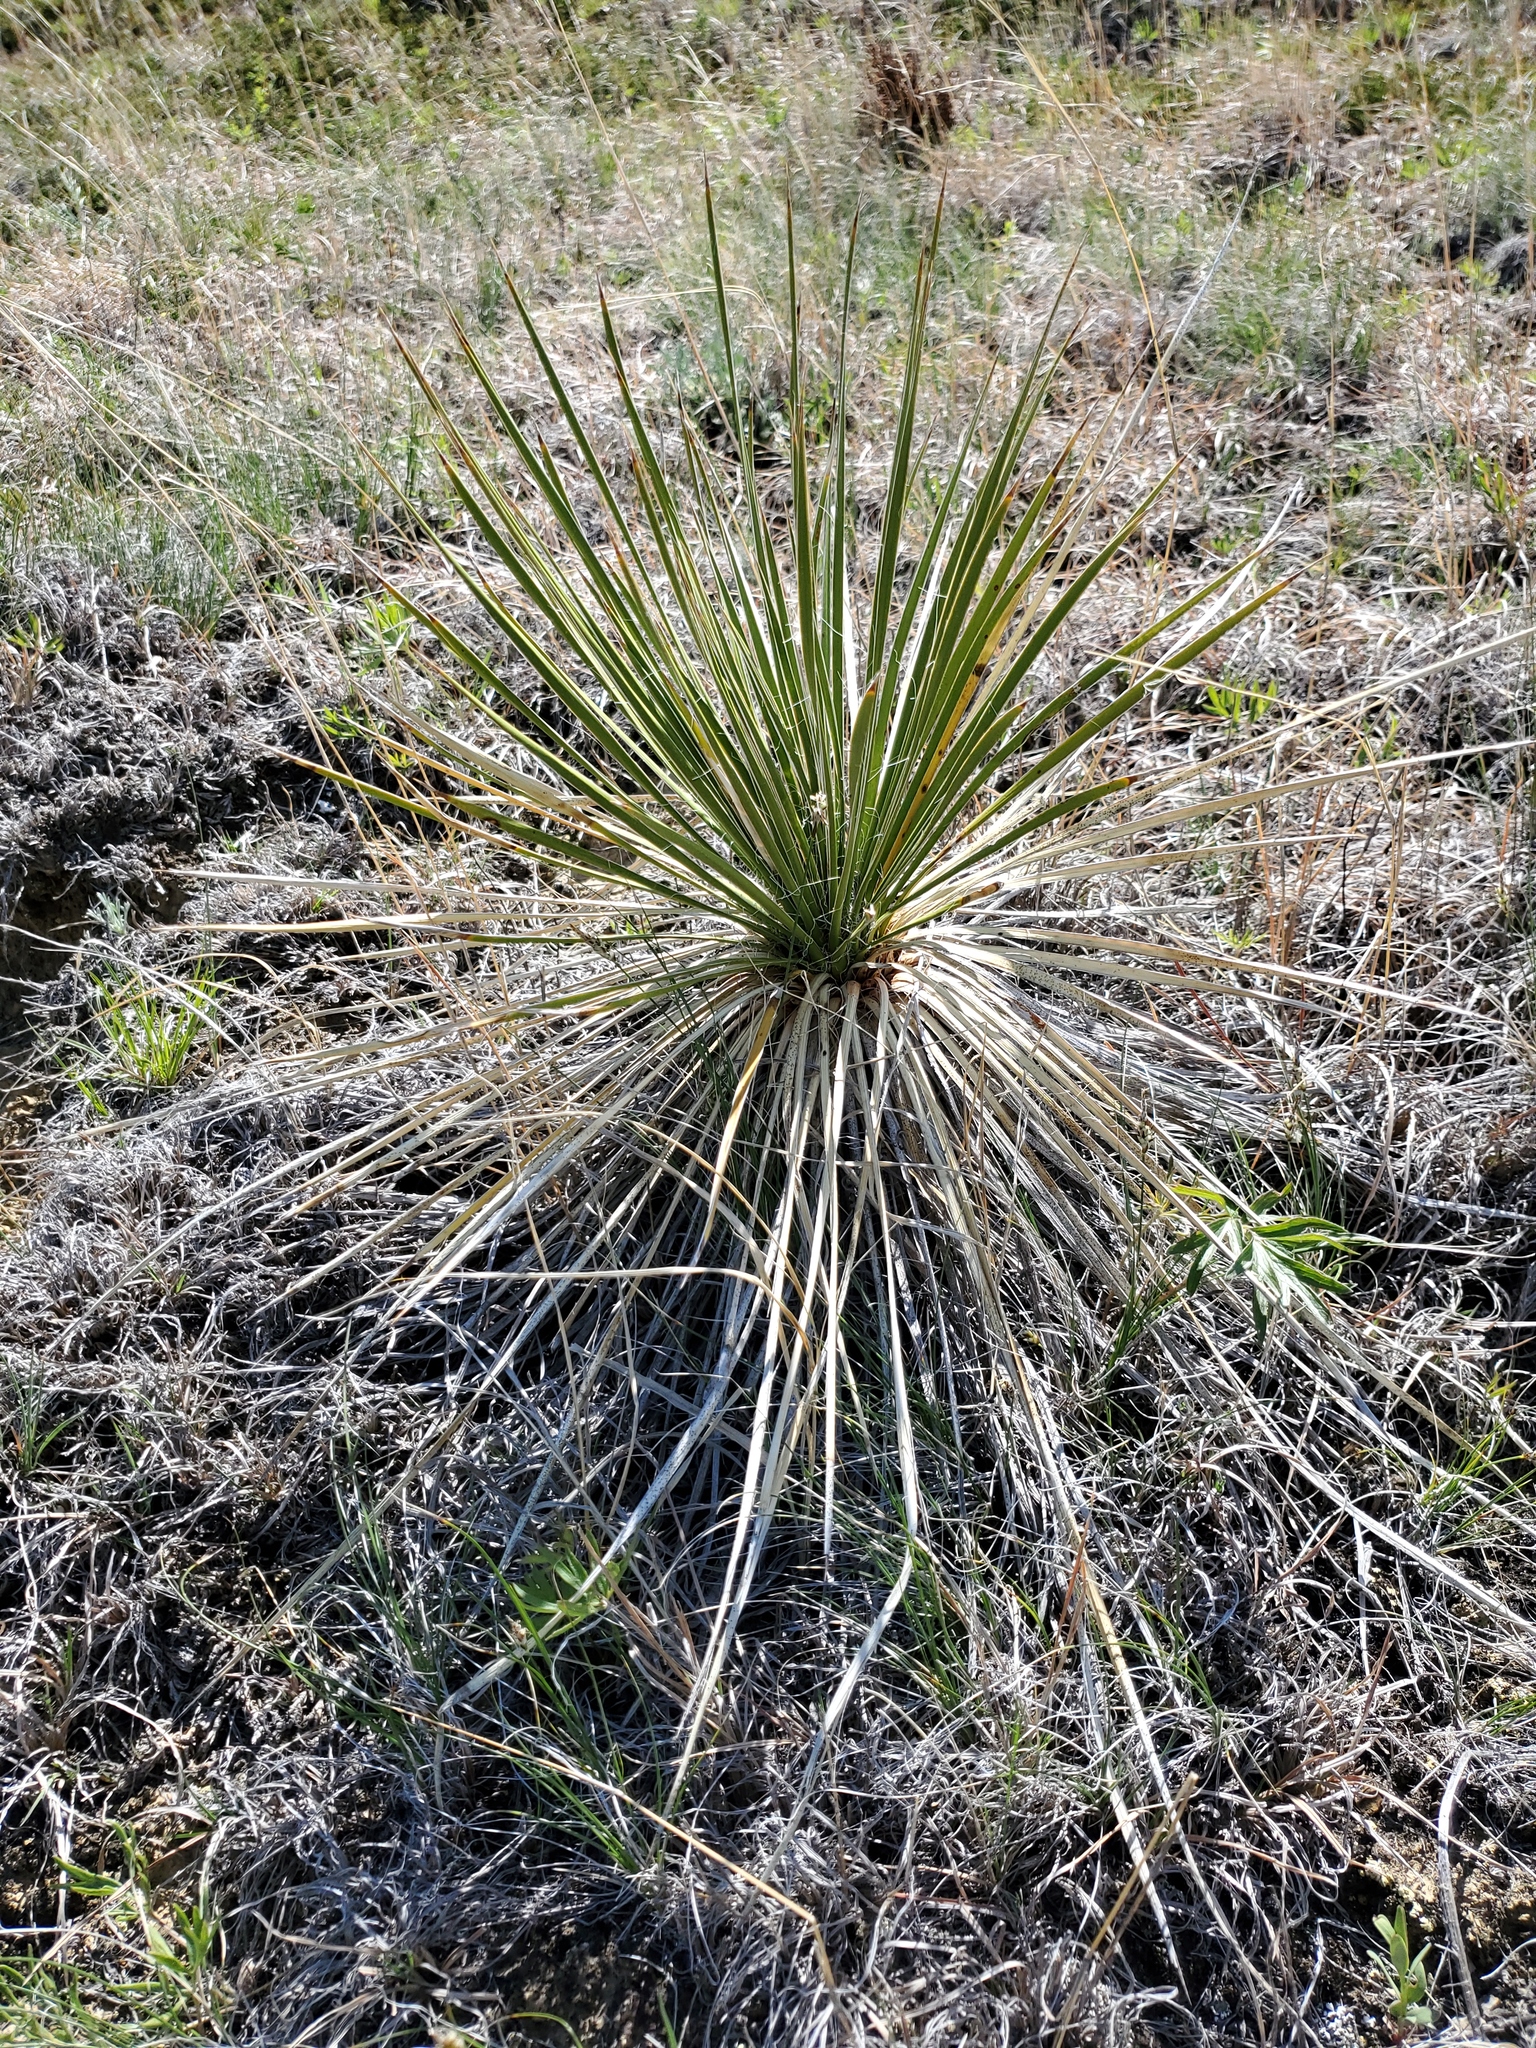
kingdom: Plantae
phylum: Tracheophyta
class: Liliopsida
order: Asparagales
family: Asparagaceae
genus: Yucca
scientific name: Yucca glauca
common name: Great plains yucca
